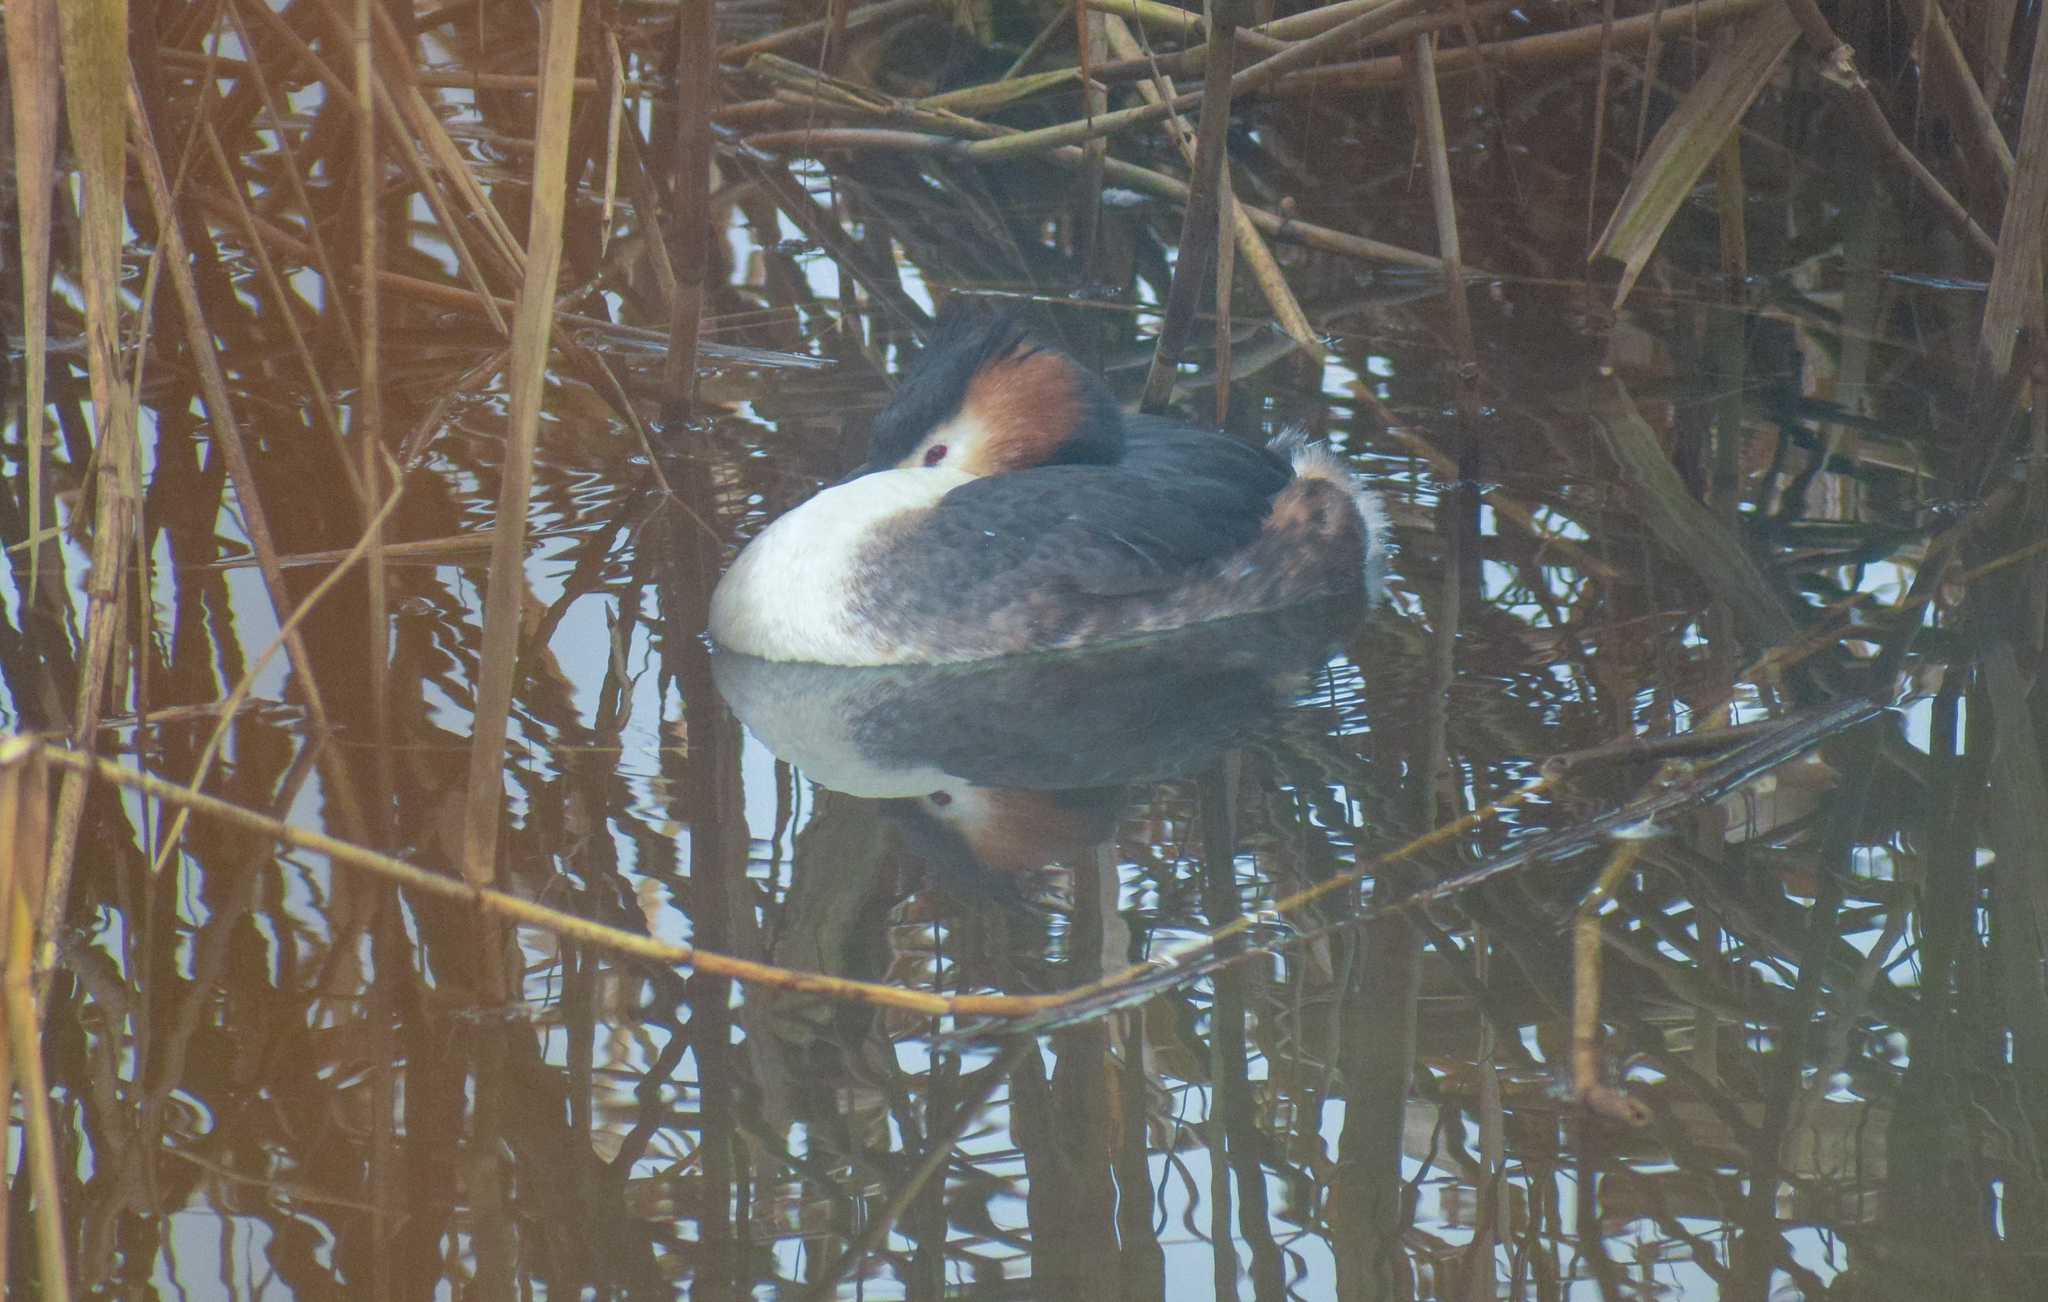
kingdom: Animalia
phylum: Chordata
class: Aves
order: Podicipediformes
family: Podicipedidae
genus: Podiceps
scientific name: Podiceps cristatus
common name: Great crested grebe
